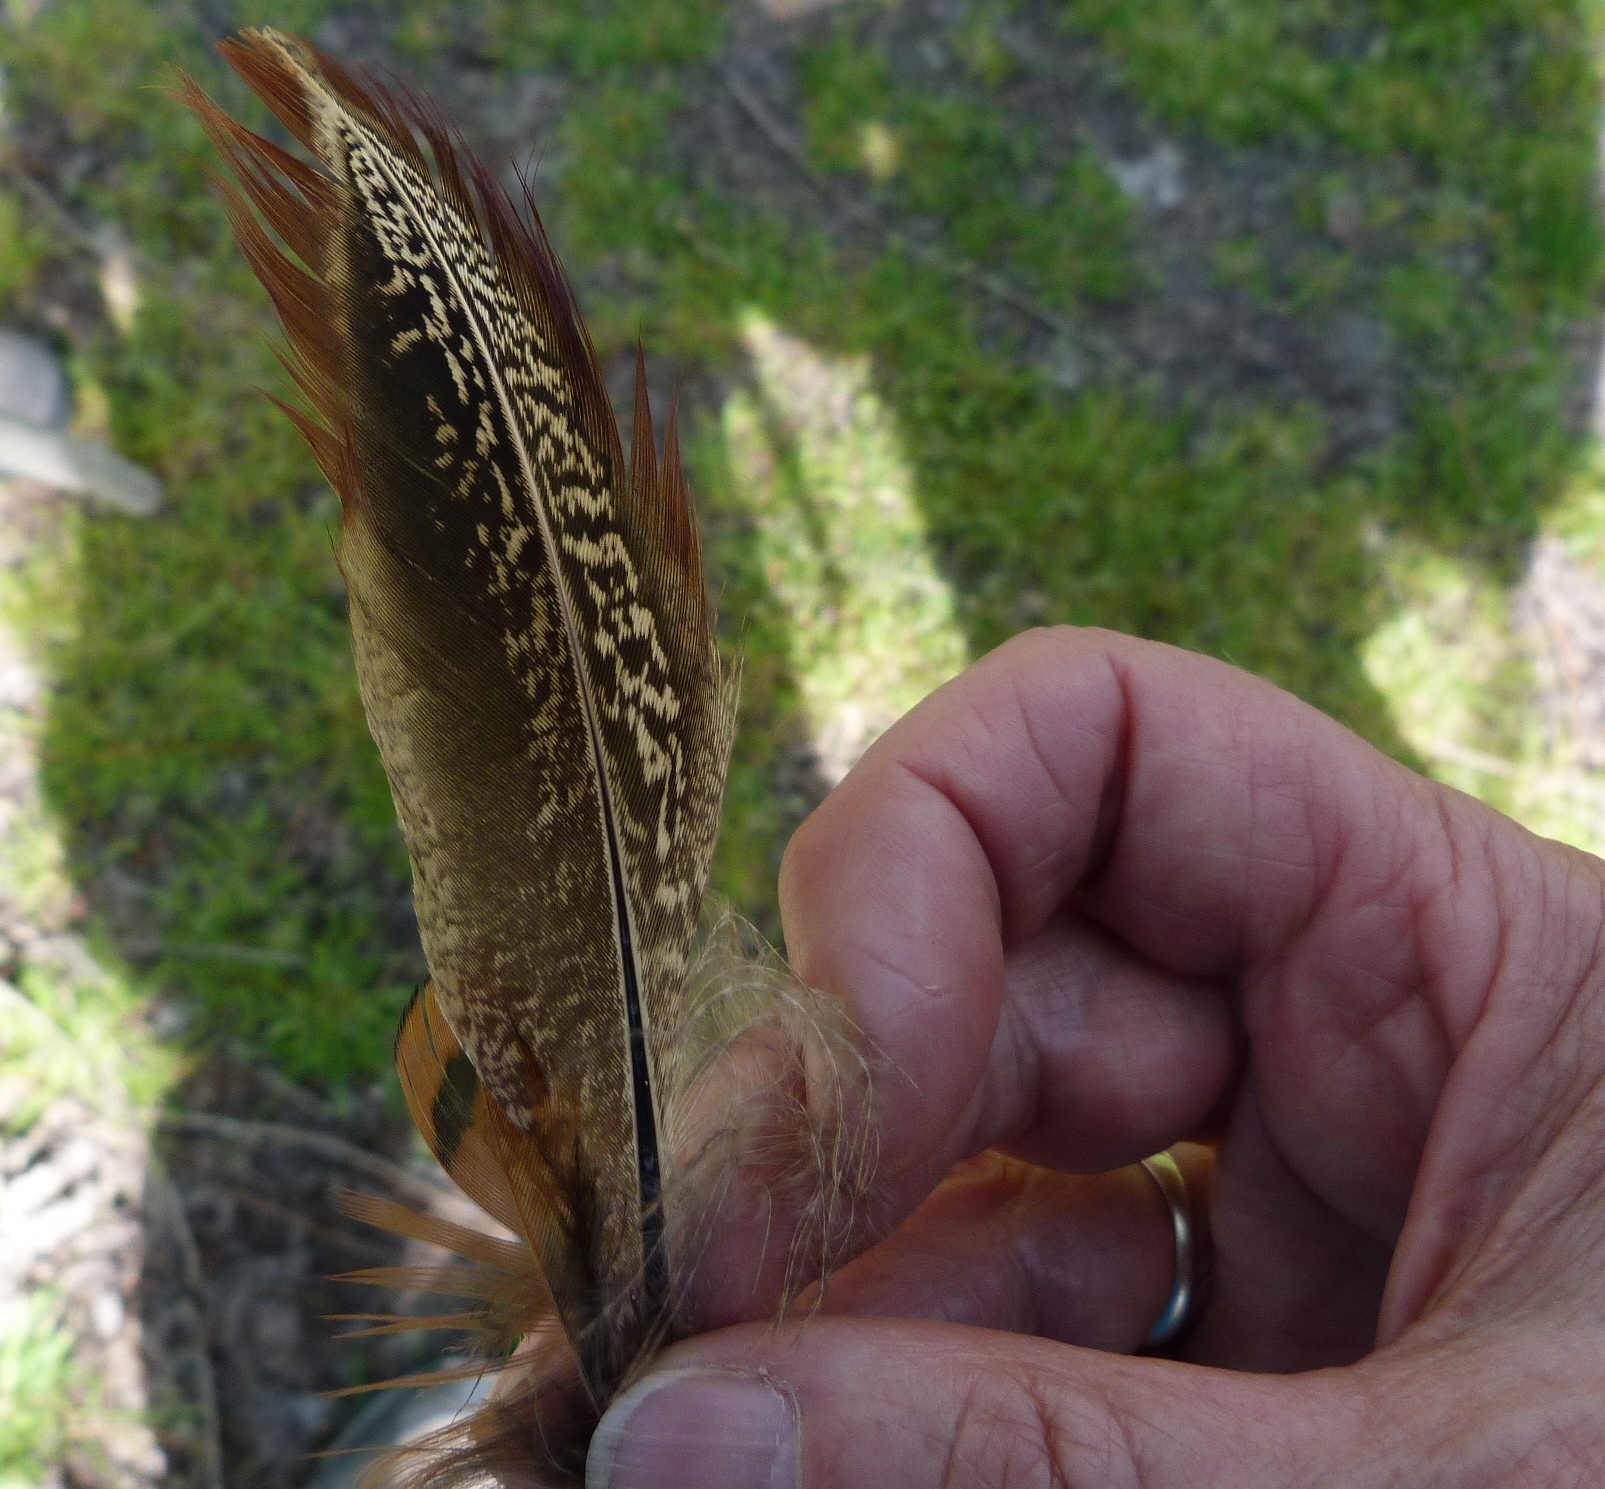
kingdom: Animalia
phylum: Chordata
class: Aves
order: Galliformes
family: Phasianidae
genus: Phasianus
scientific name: Phasianus colchicus
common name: Common pheasant
